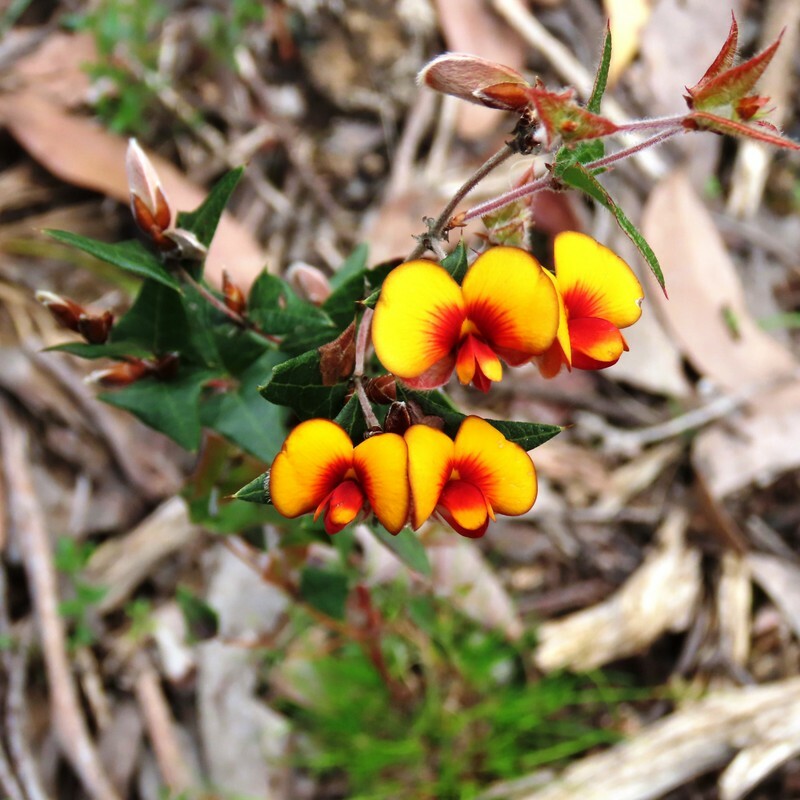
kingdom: Plantae
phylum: Tracheophyta
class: Magnoliopsida
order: Fabales
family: Fabaceae
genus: Platylobium
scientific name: Platylobium obtusangulum
